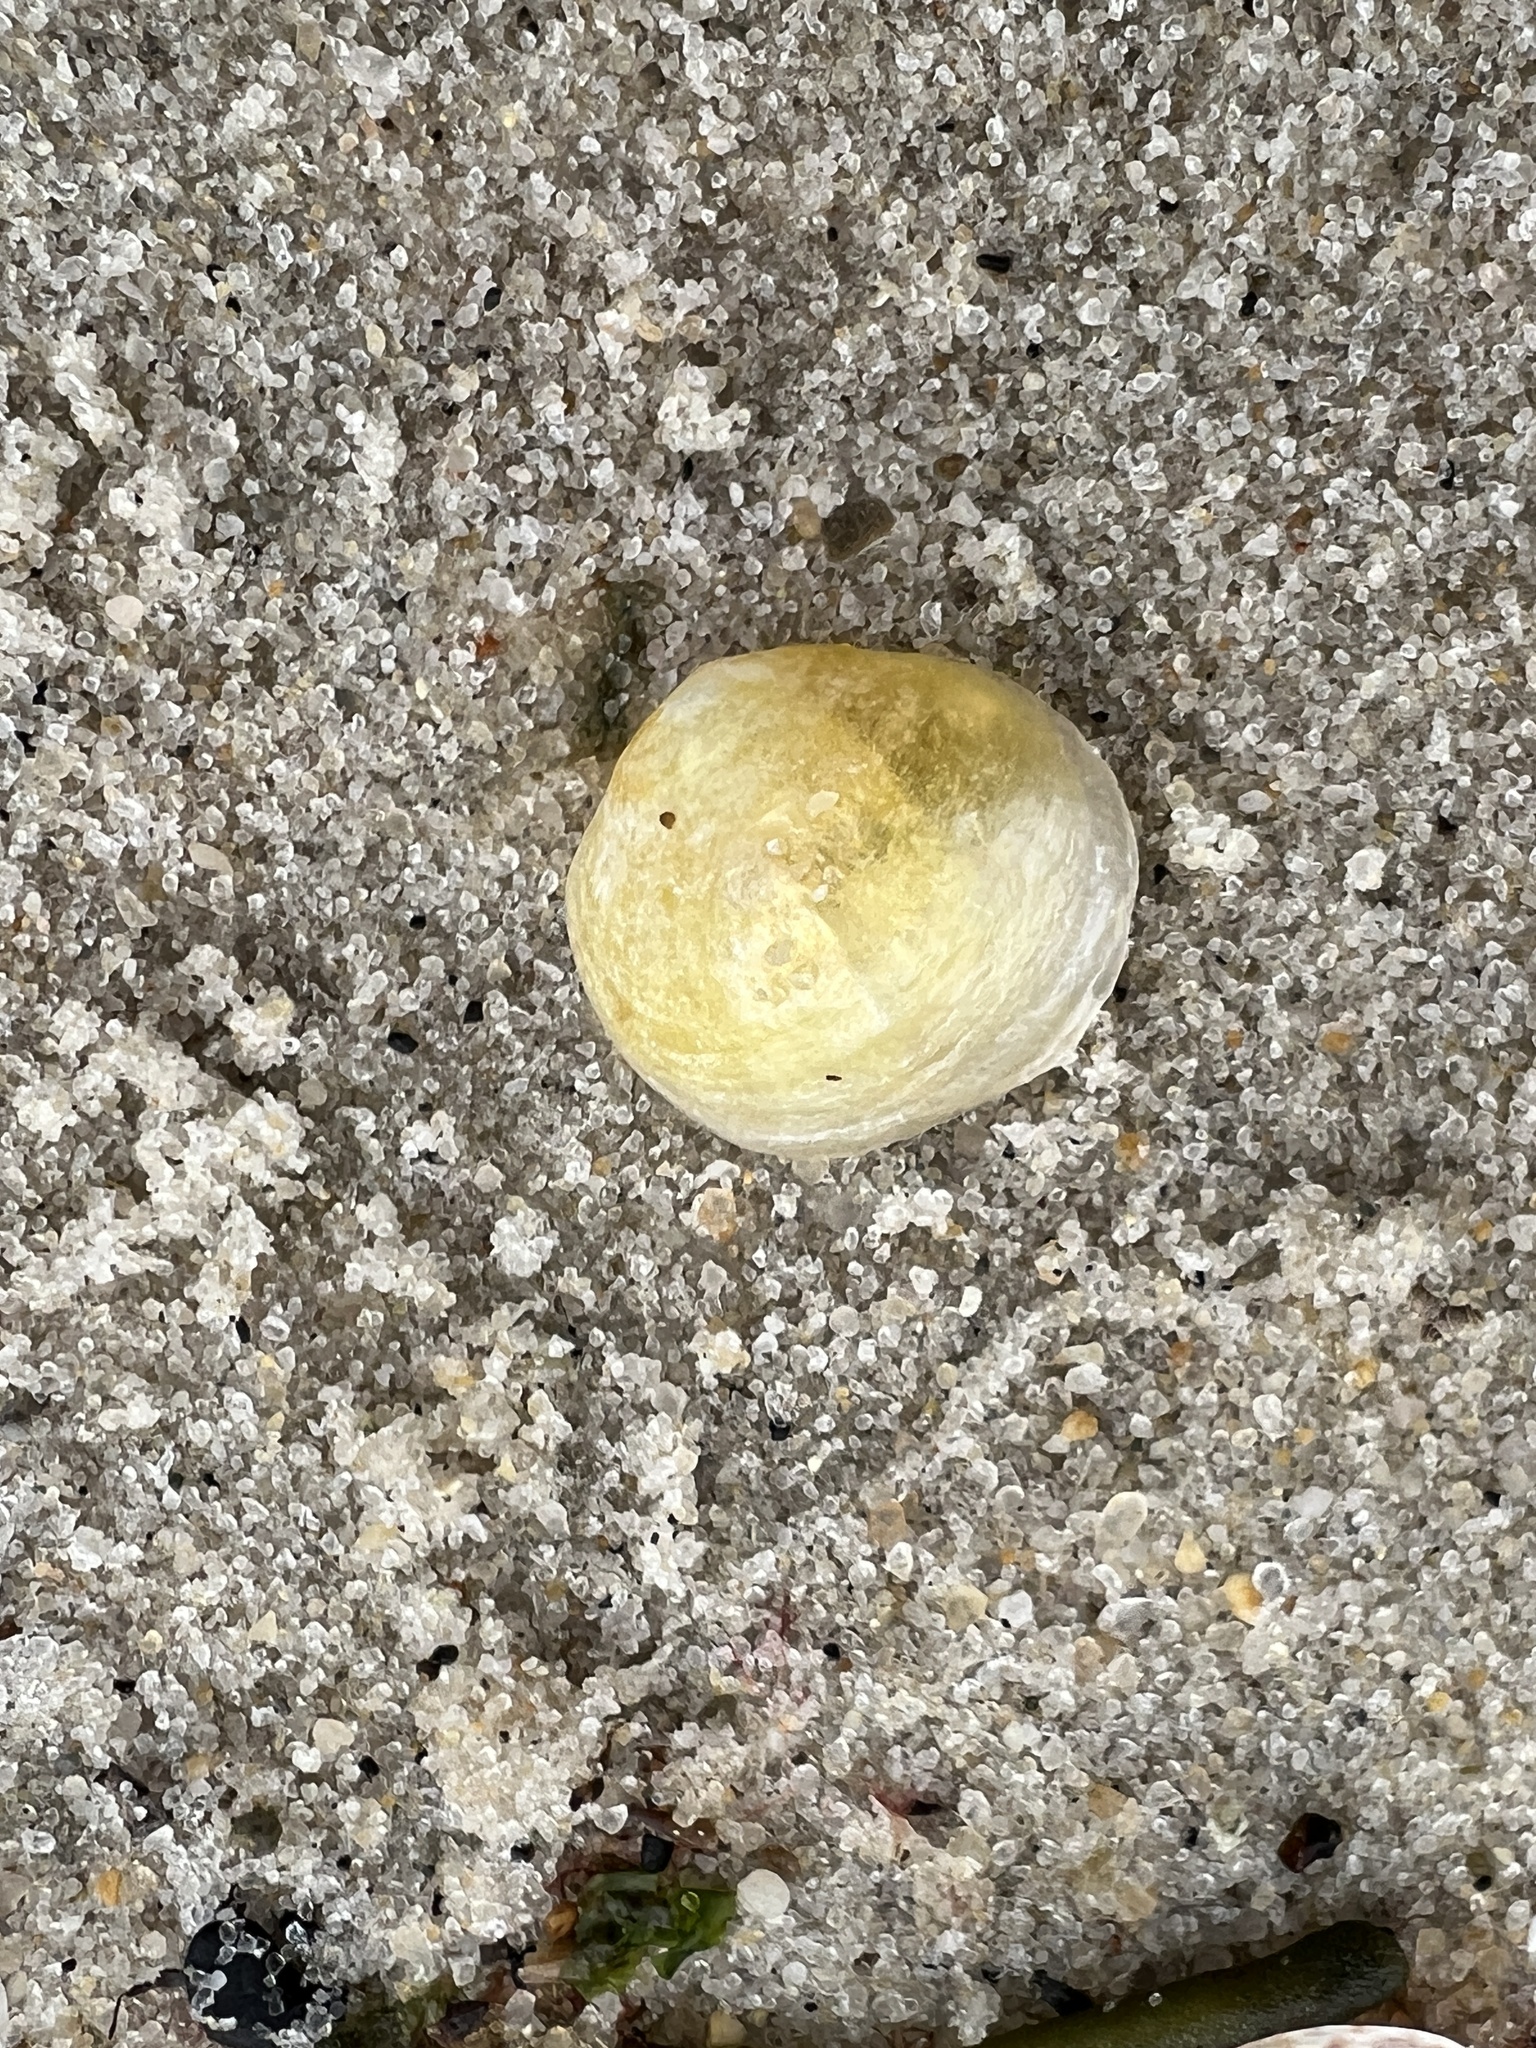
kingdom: Animalia
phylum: Mollusca
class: Bivalvia
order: Pectinida
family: Anomiidae
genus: Anomia
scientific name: Anomia simplex
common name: Common jingle shell
